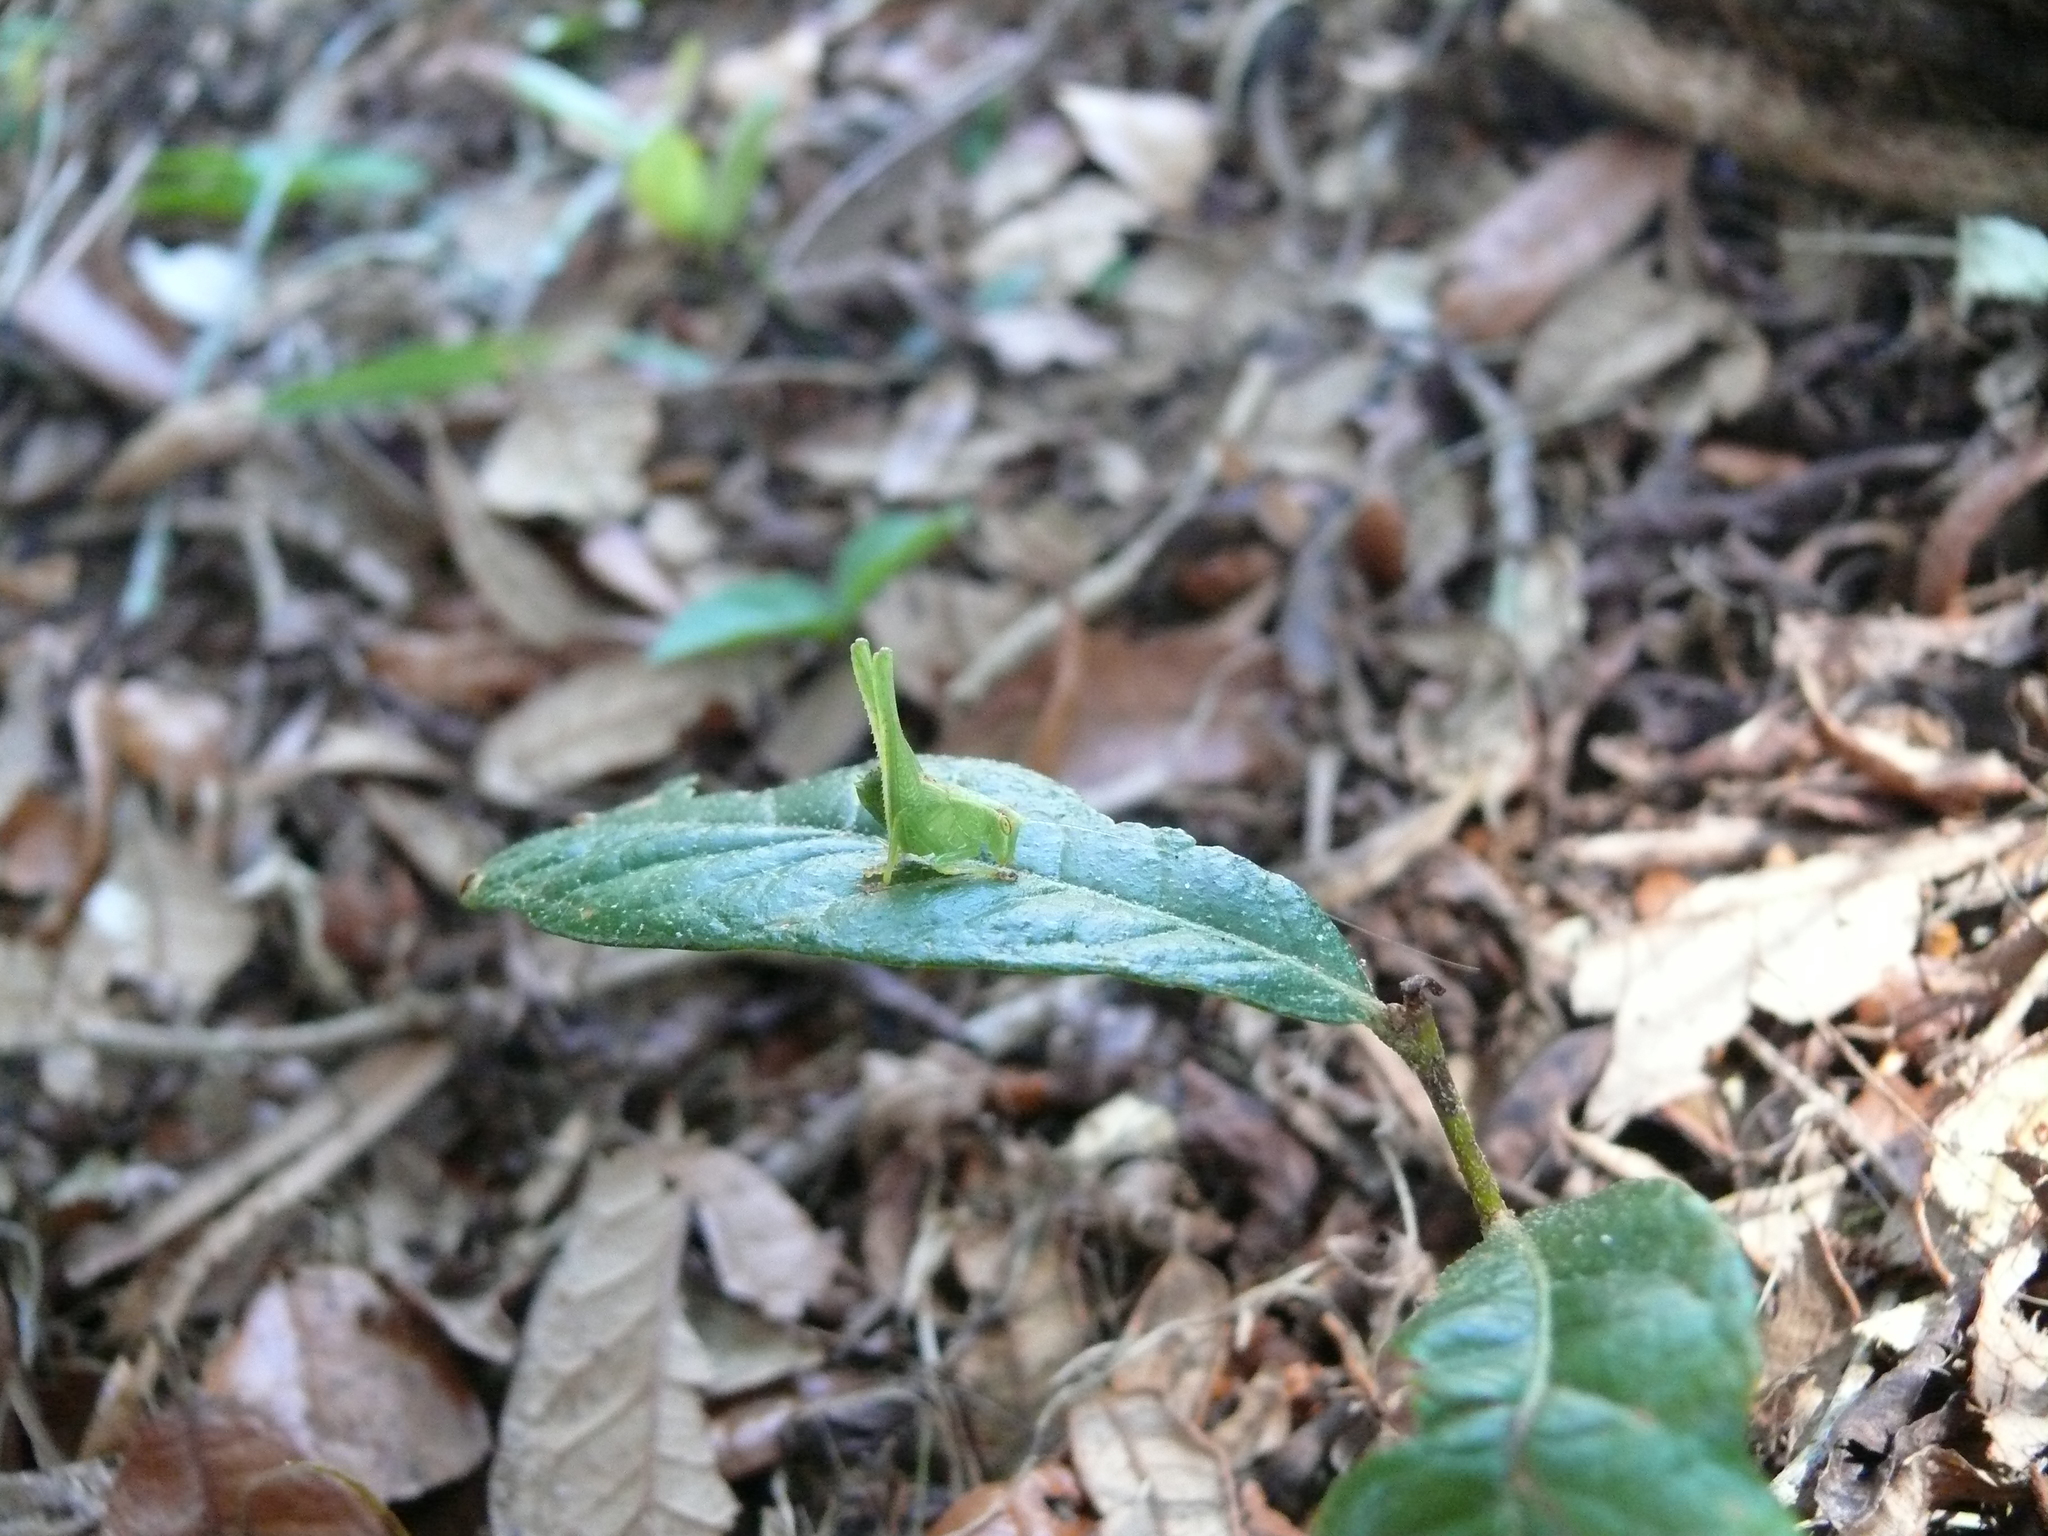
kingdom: Animalia
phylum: Arthropoda
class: Insecta
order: Orthoptera
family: Tettigoniidae
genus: Montezumina
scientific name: Montezumina modesta
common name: Modest katydid
